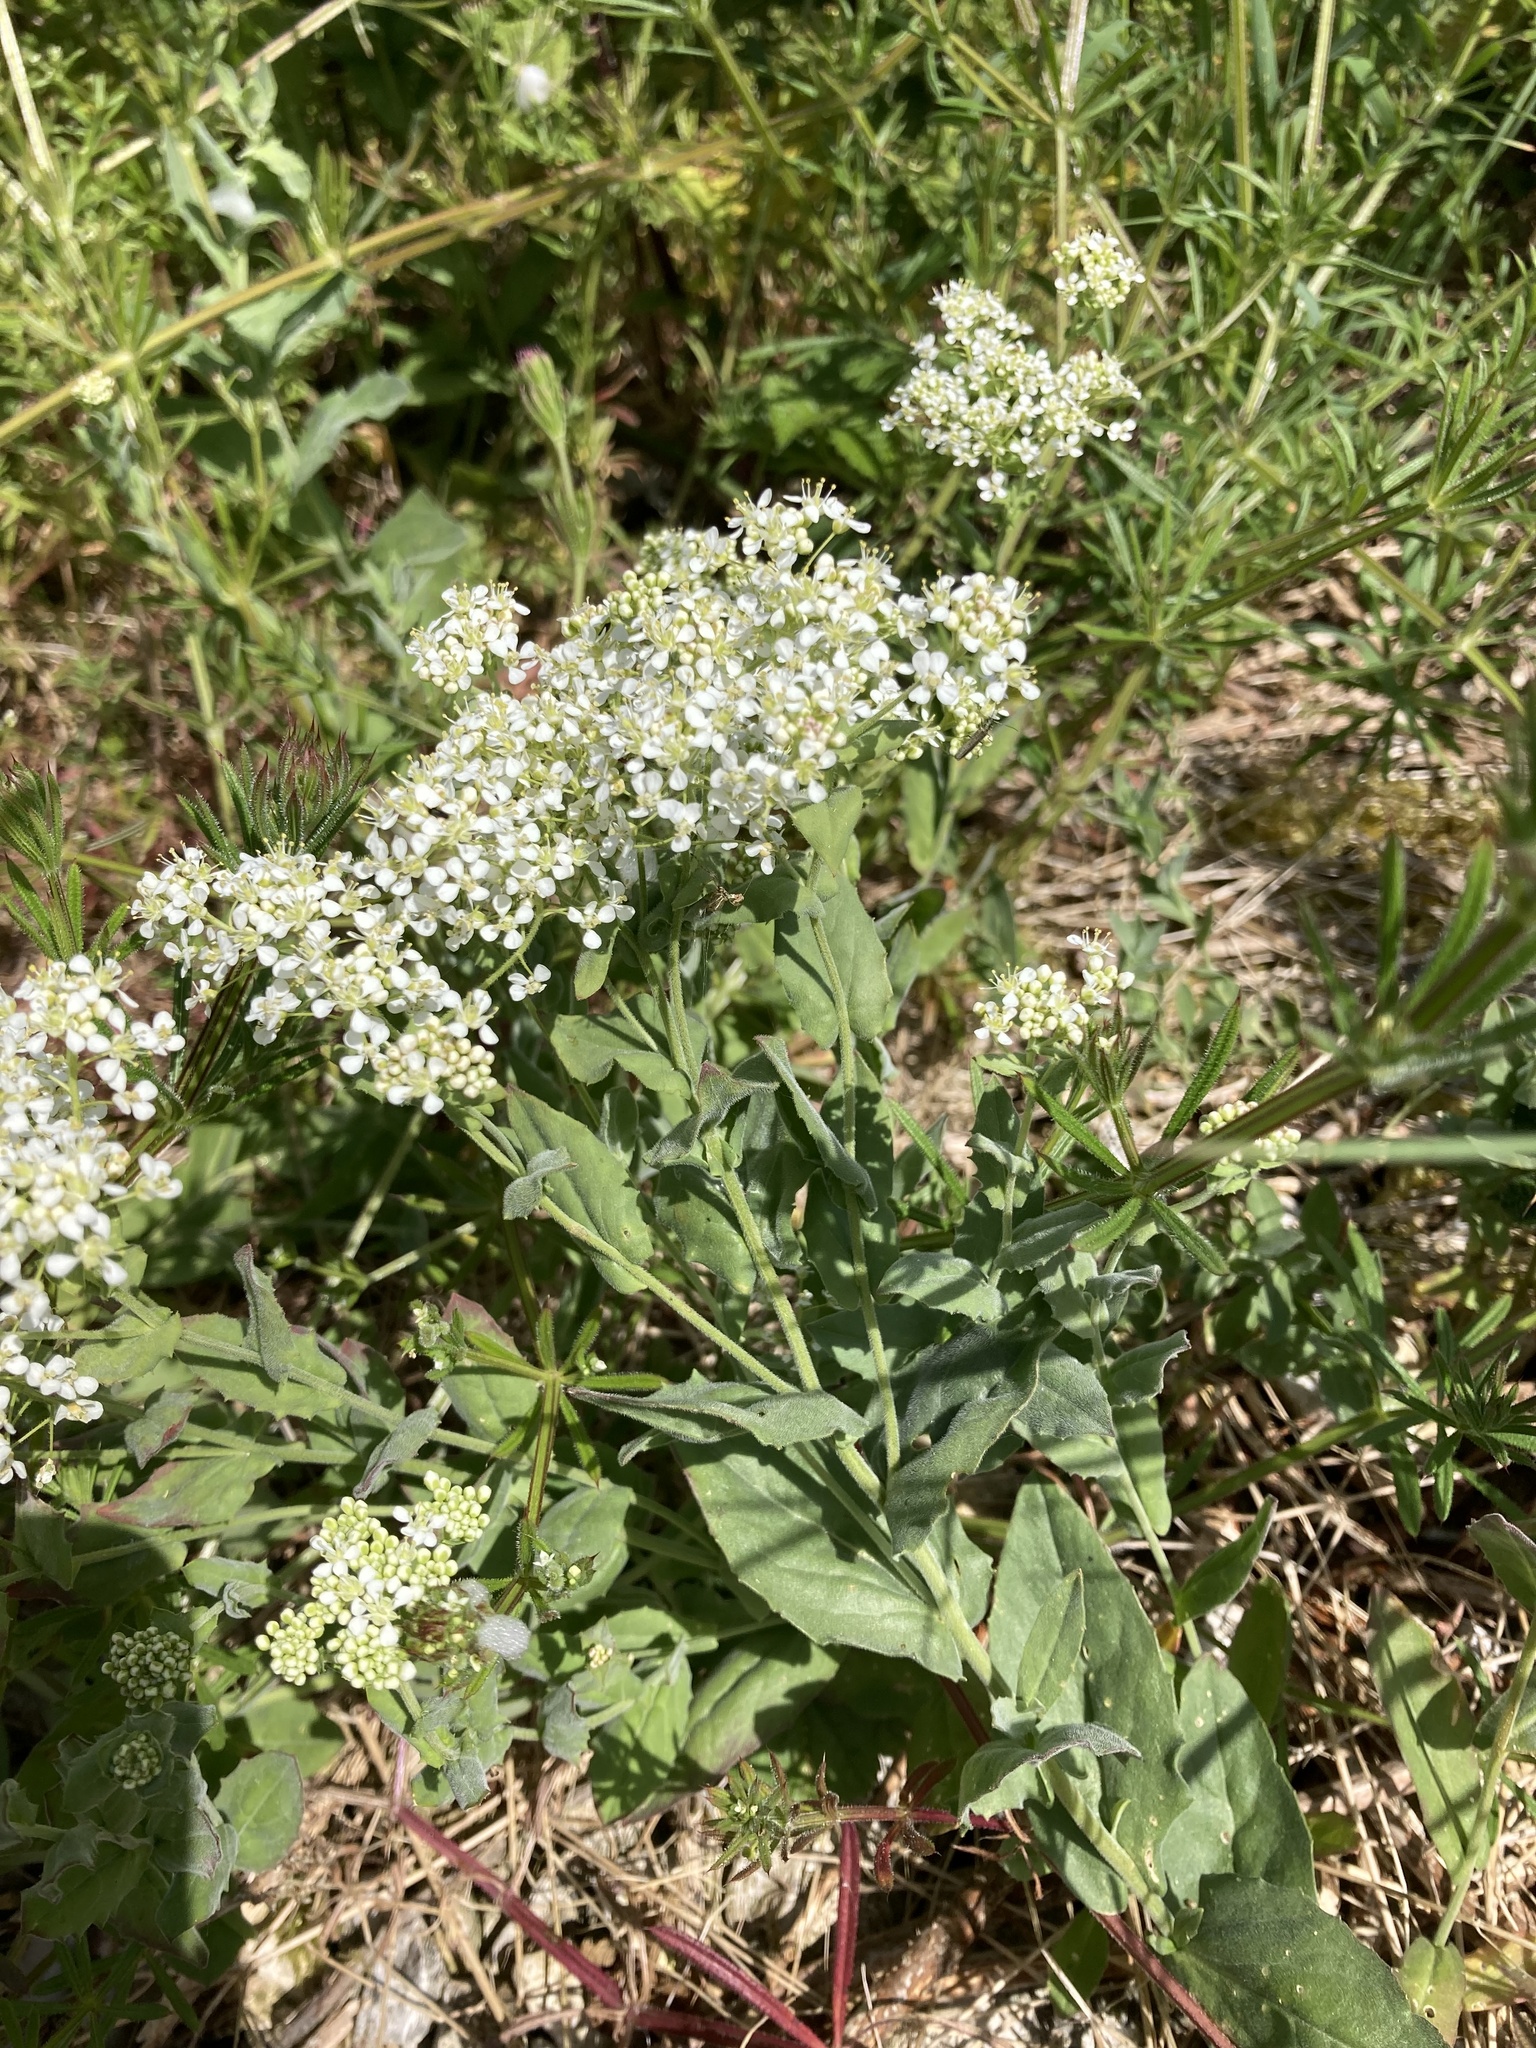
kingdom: Plantae
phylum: Tracheophyta
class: Magnoliopsida
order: Brassicales
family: Brassicaceae
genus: Lepidium
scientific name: Lepidium draba
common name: Hoary cress
